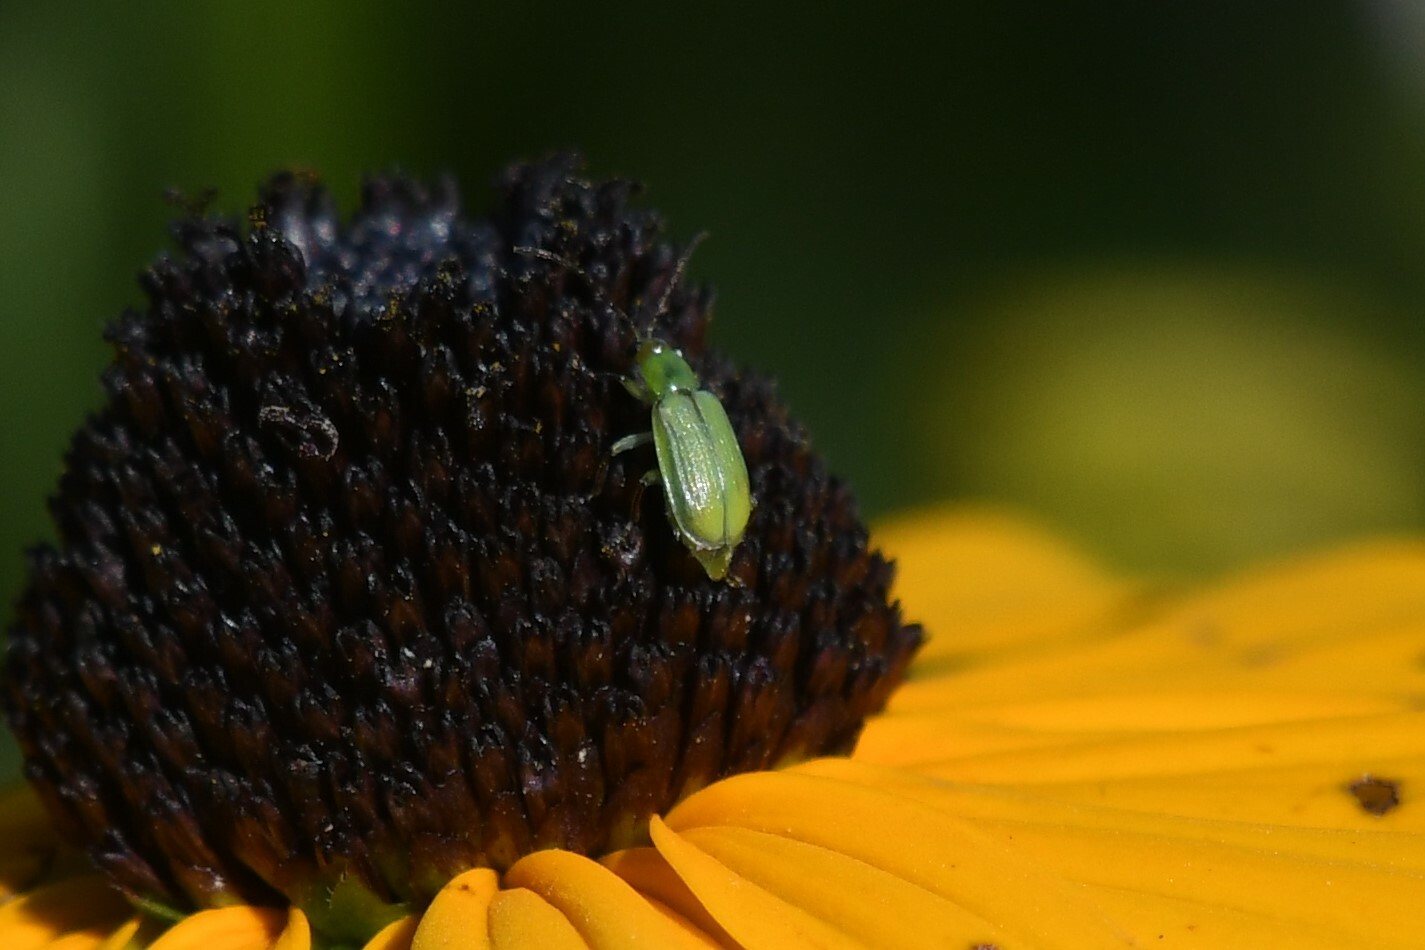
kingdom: Animalia
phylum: Arthropoda
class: Insecta
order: Coleoptera
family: Chrysomelidae
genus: Diabrotica
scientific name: Diabrotica barberi
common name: Northern corn rootworm
